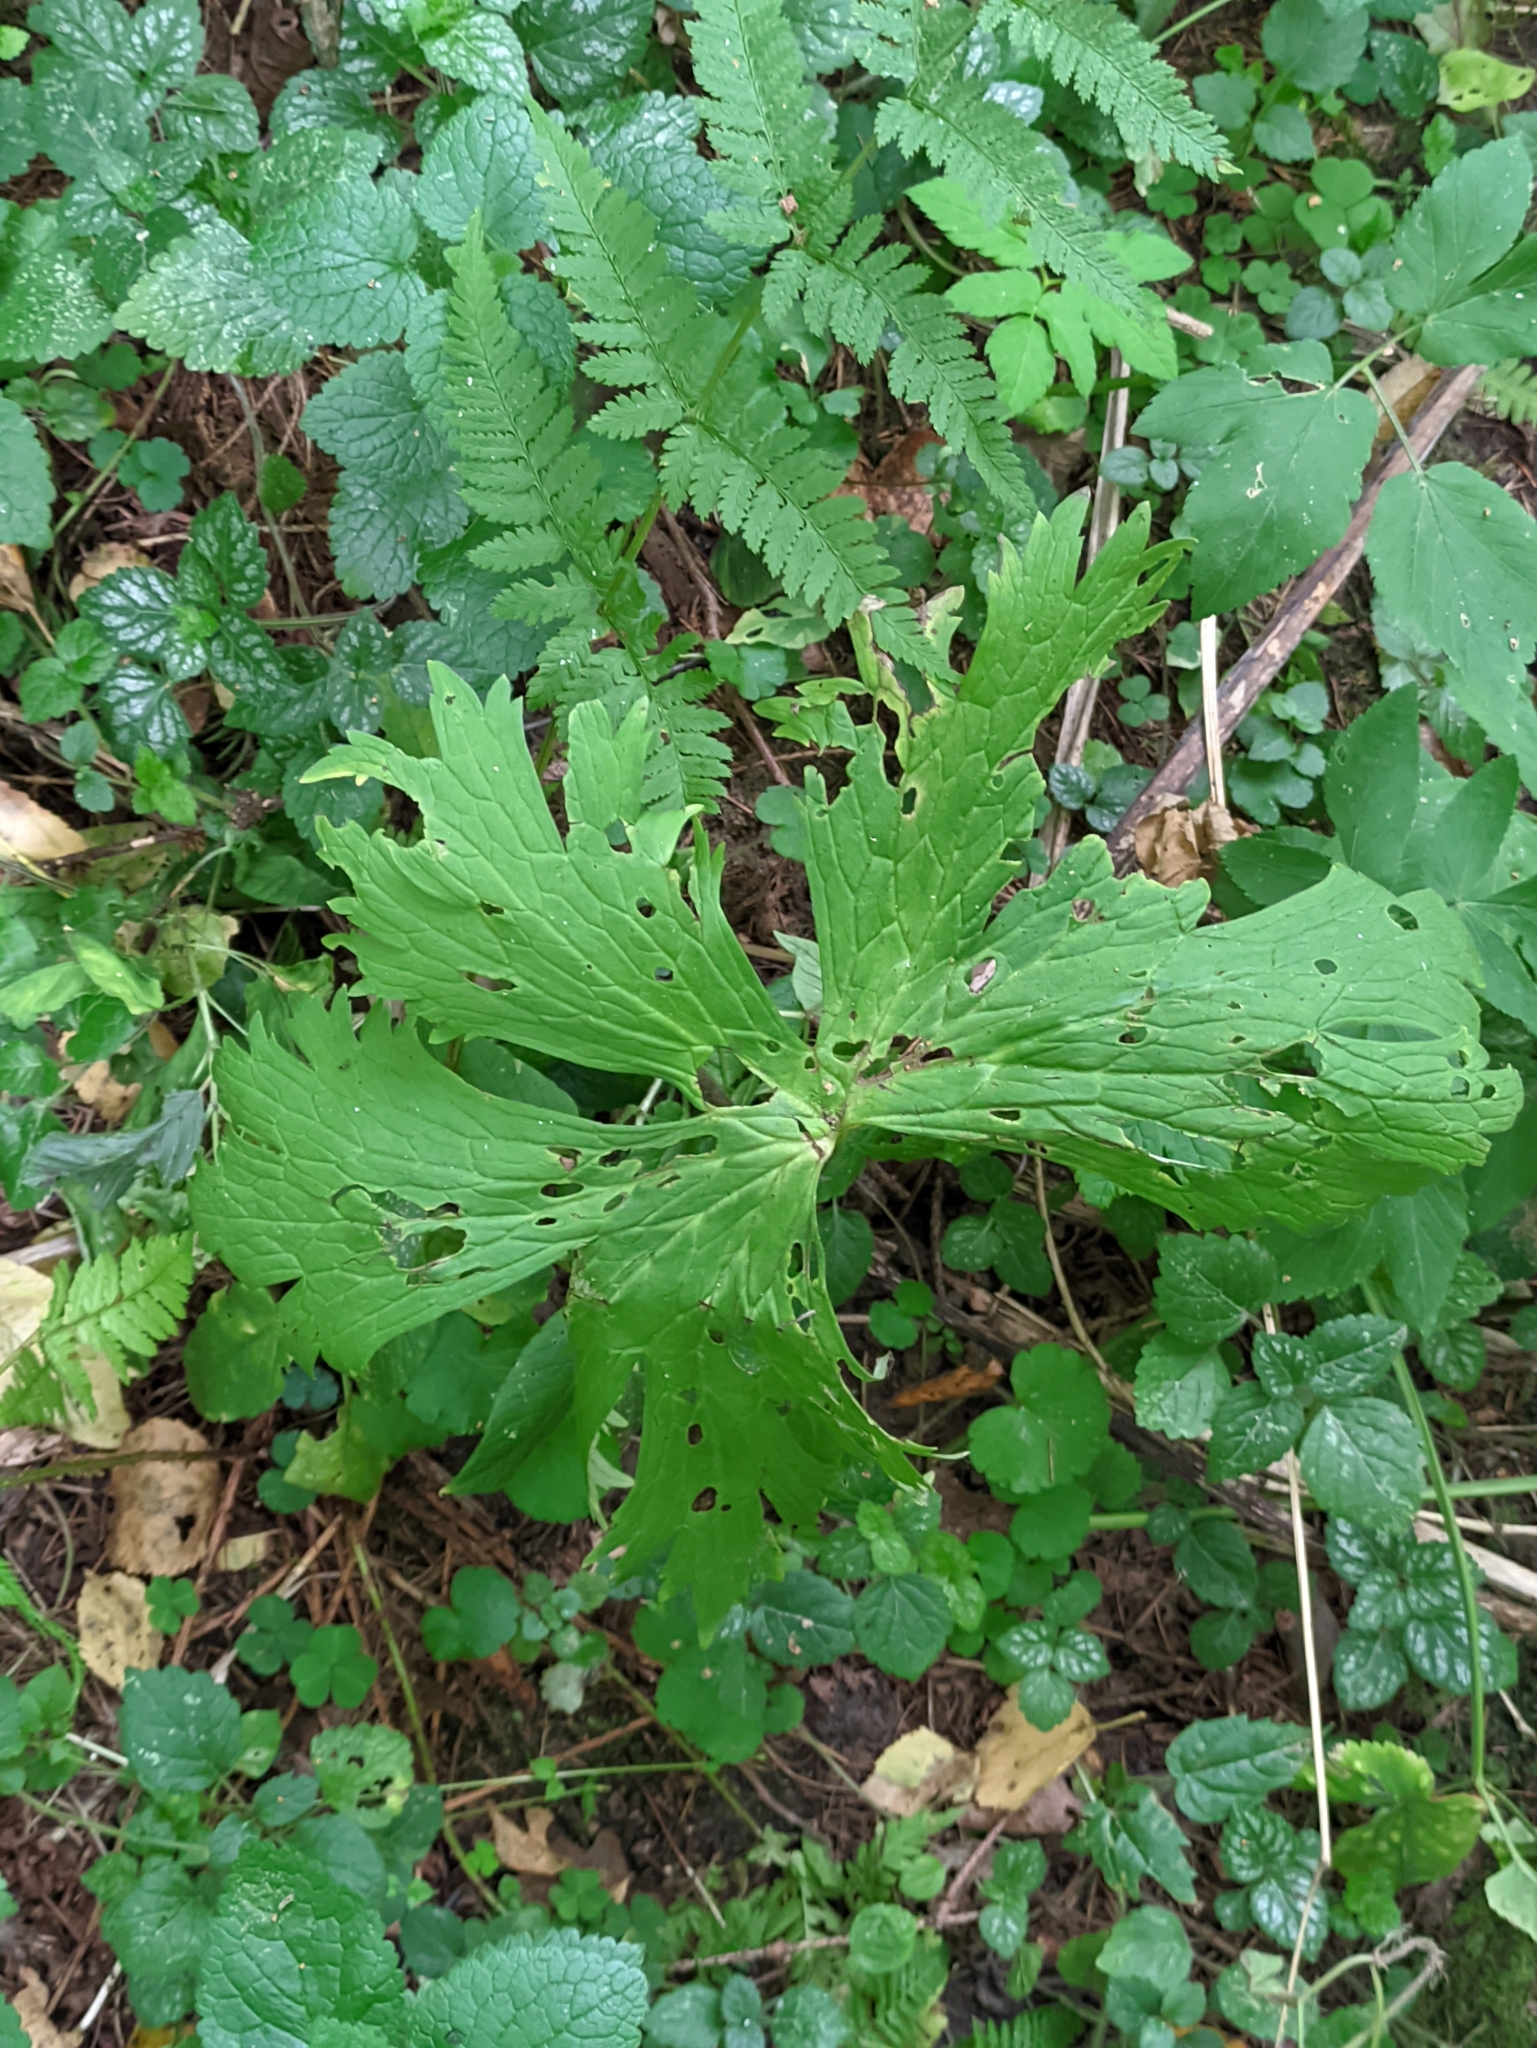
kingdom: Plantae
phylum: Tracheophyta
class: Magnoliopsida
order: Ranunculales
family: Ranunculaceae
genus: Aconitum
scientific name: Aconitum septentrionale
